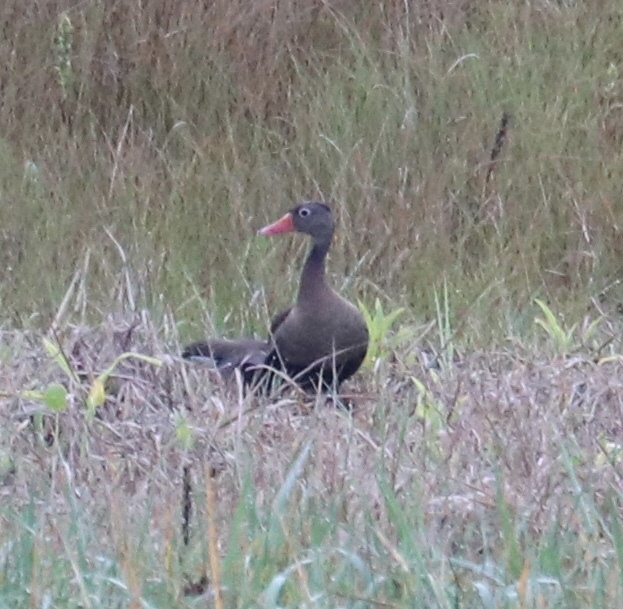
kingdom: Animalia
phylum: Chordata
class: Aves
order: Anseriformes
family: Anatidae
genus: Dendrocygna
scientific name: Dendrocygna autumnalis
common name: Black-bellied whistling duck
